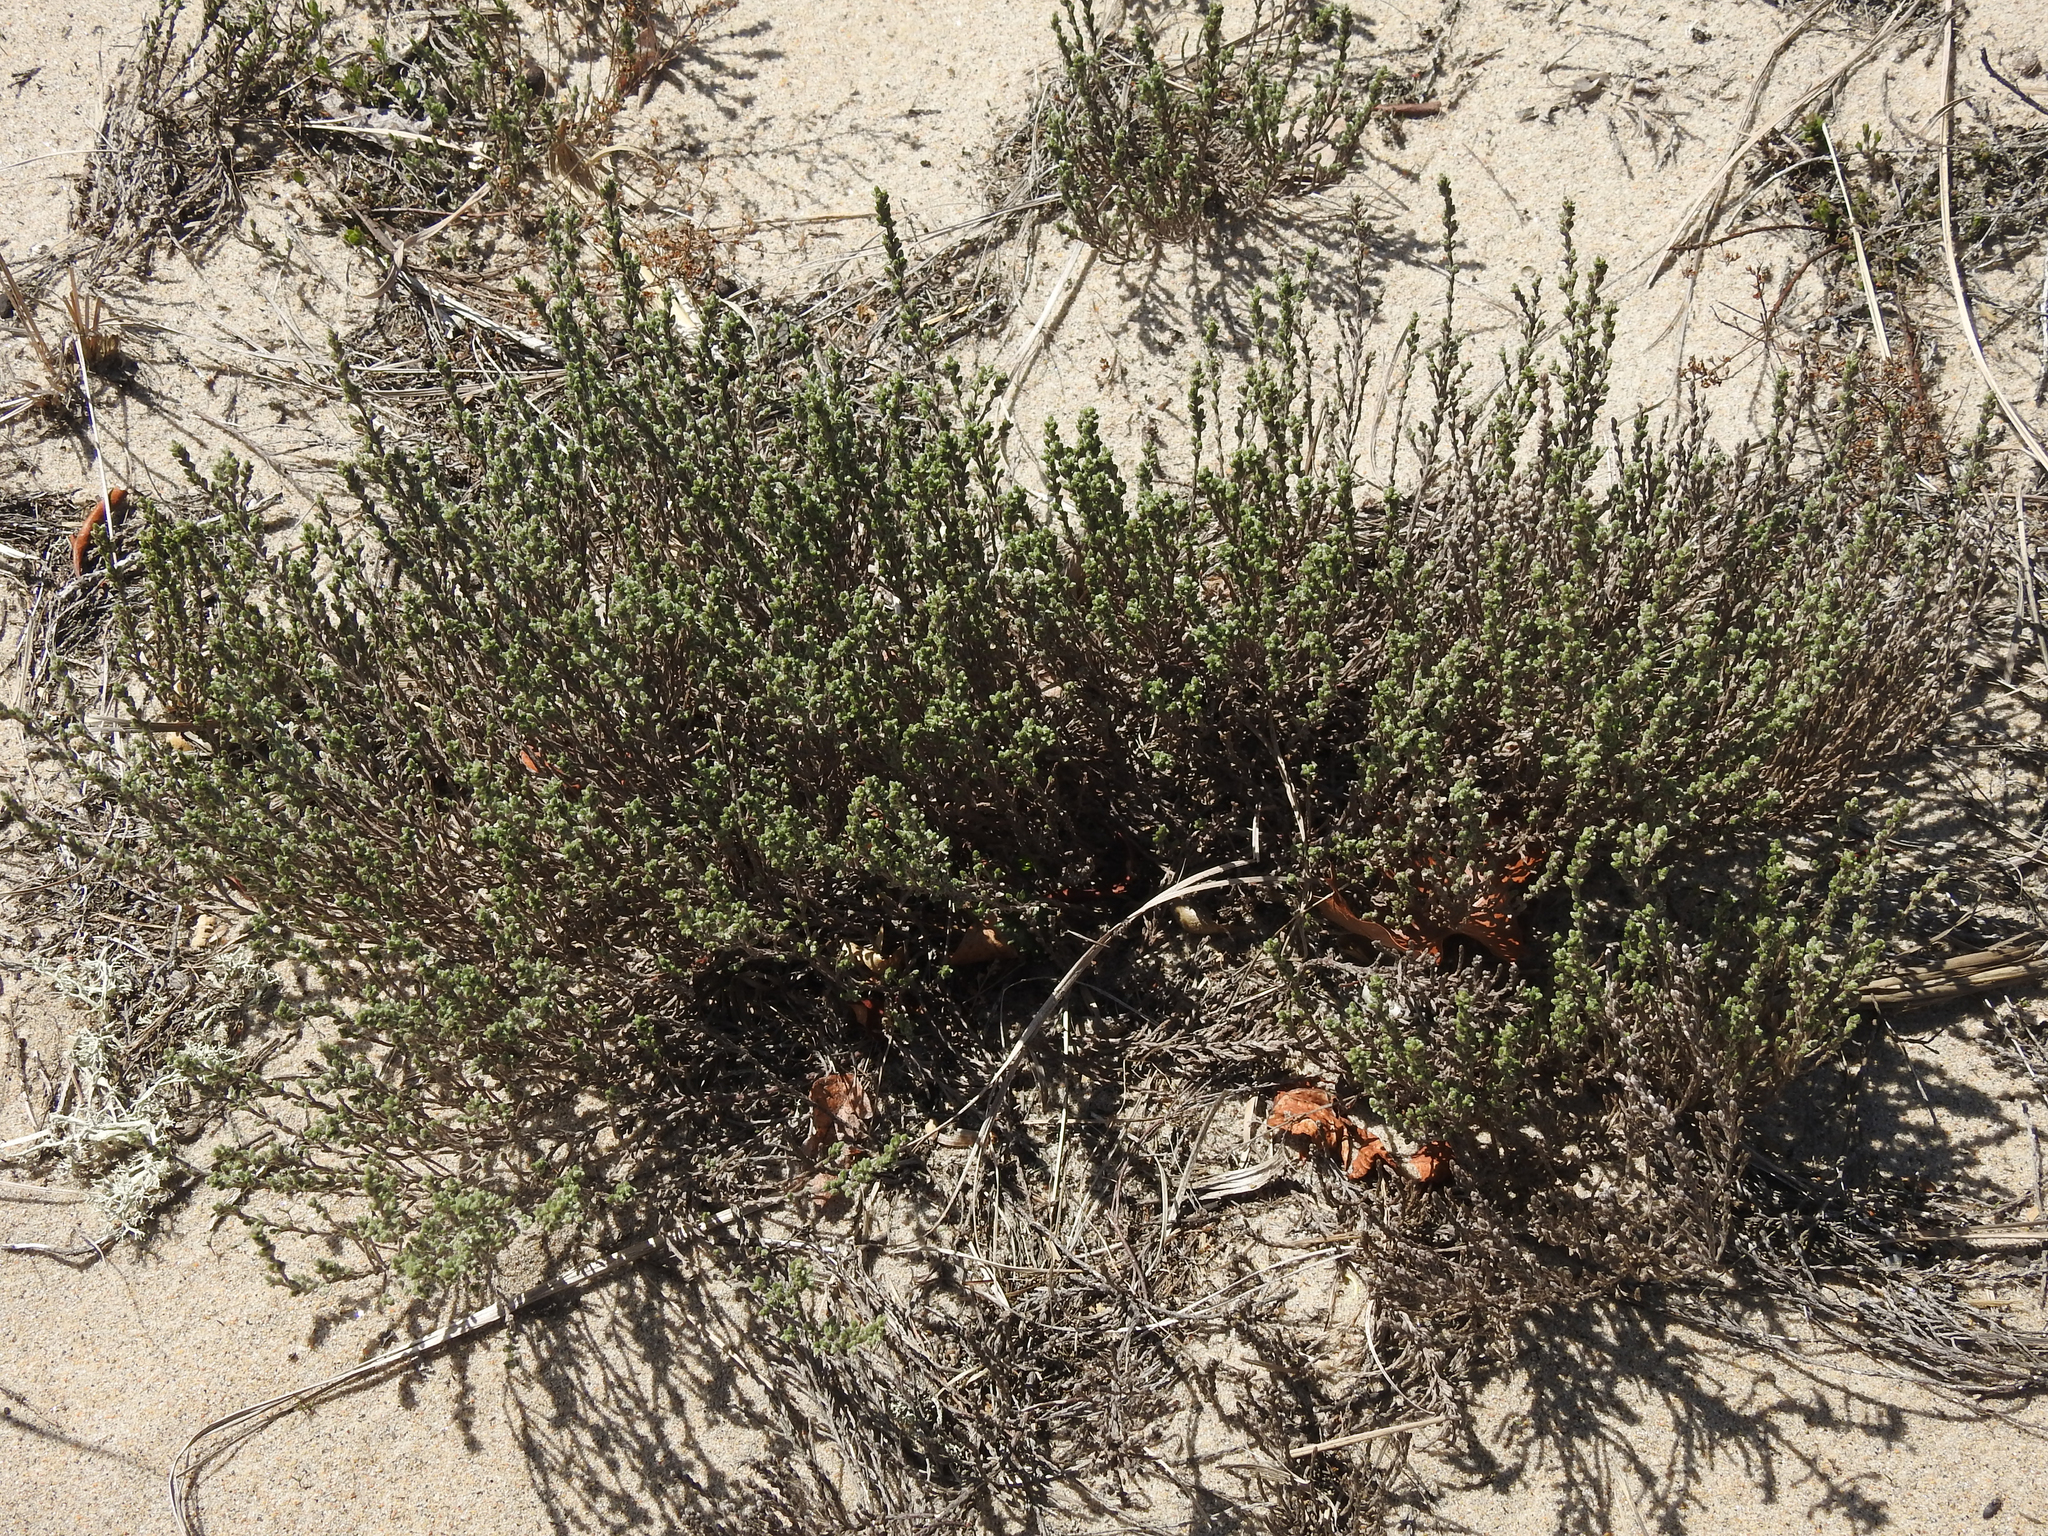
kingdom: Plantae
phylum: Tracheophyta
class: Magnoliopsida
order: Malvales
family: Cistaceae
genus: Hudsonia
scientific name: Hudsonia tomentosa
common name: Beach-heath
